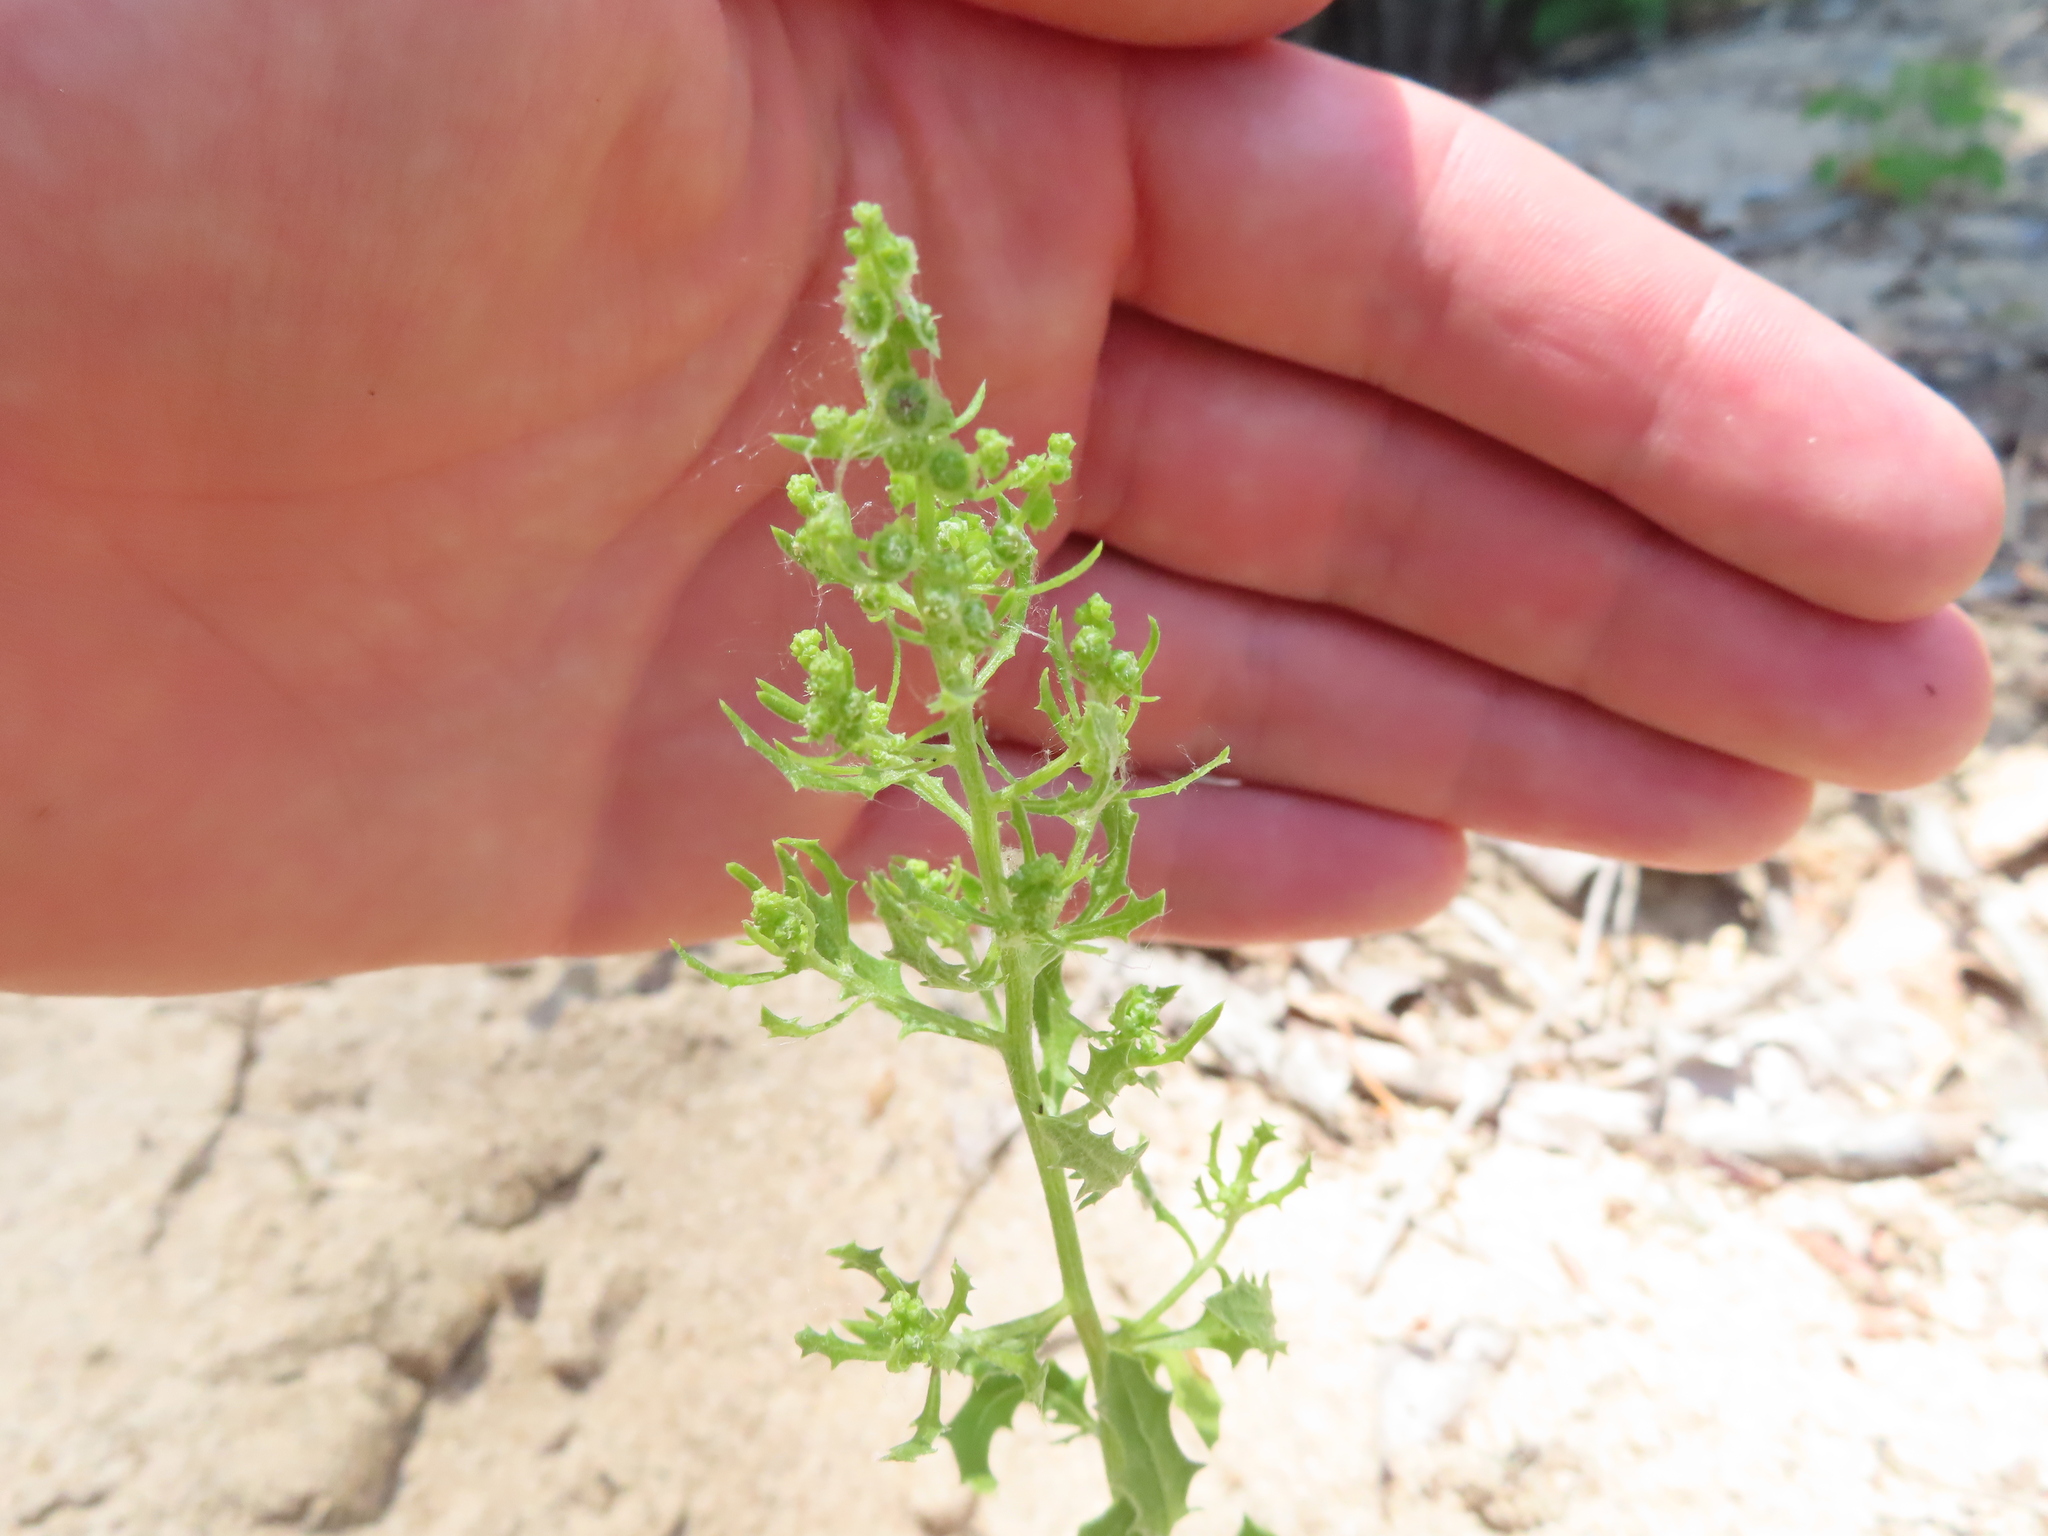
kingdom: Plantae
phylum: Tracheophyta
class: Magnoliopsida
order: Caryophyllales
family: Amaranthaceae
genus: Dysphania
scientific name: Dysphania atriplicifolia
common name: Plains tumbleweed
